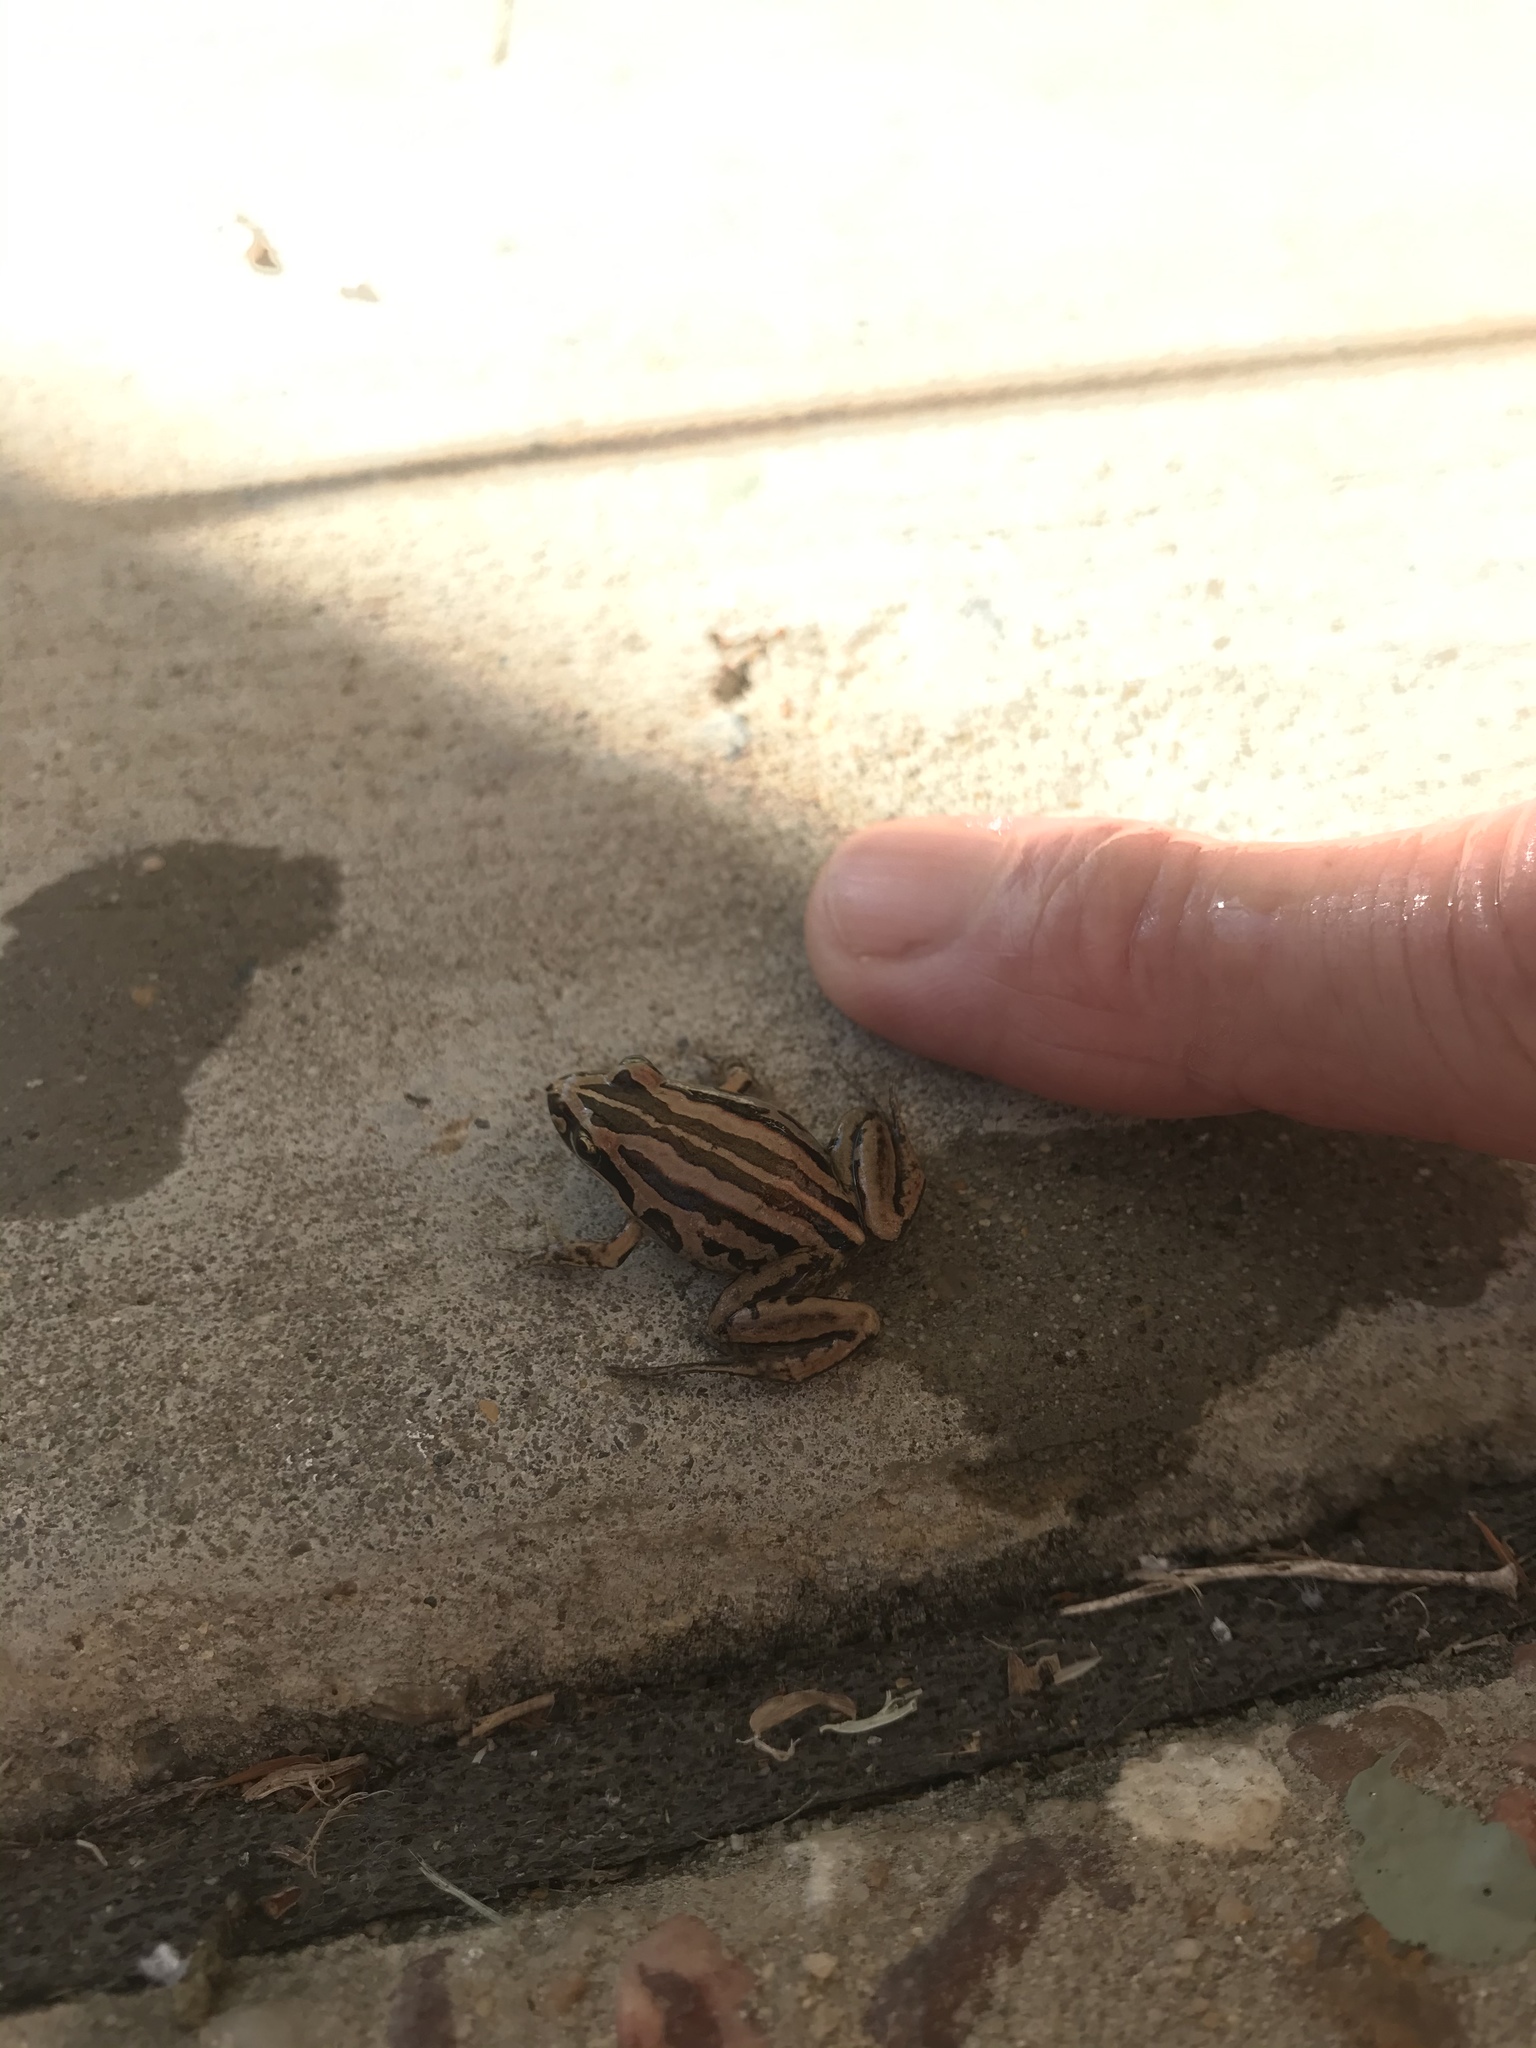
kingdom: Animalia
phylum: Chordata
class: Amphibia
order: Anura
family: Limnodynastidae
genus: Limnodynastes
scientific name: Limnodynastes peronii
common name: Brown frog
